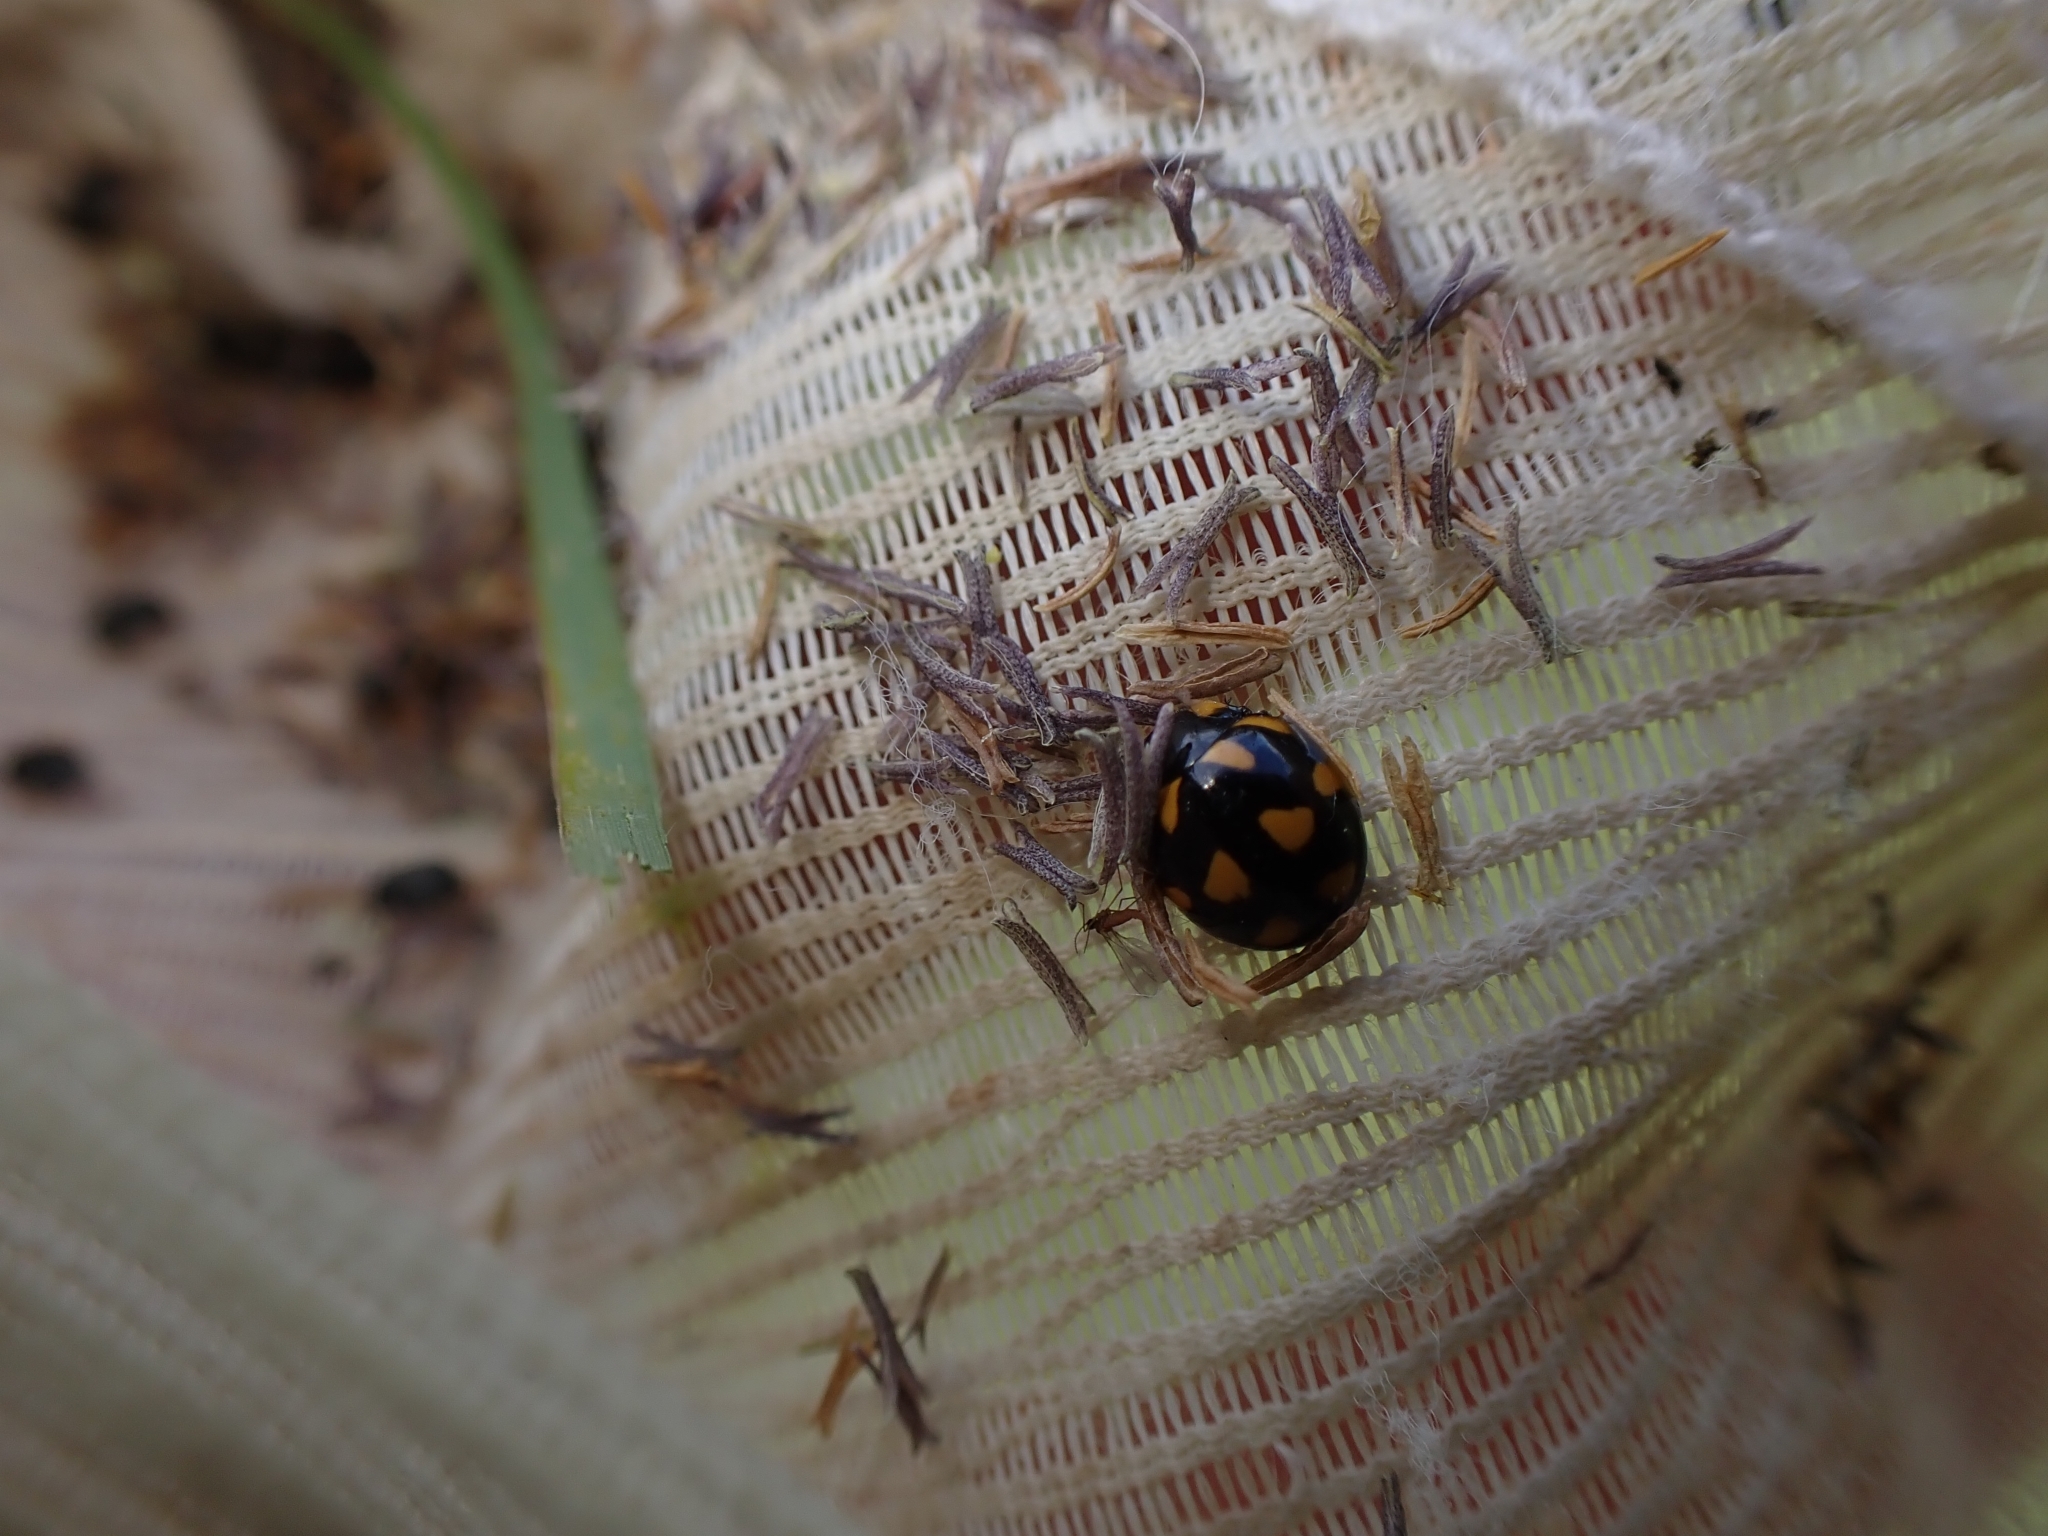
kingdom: Animalia
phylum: Arthropoda
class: Insecta
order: Coleoptera
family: Coccinellidae
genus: Coccinella
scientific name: Coccinella leonina
